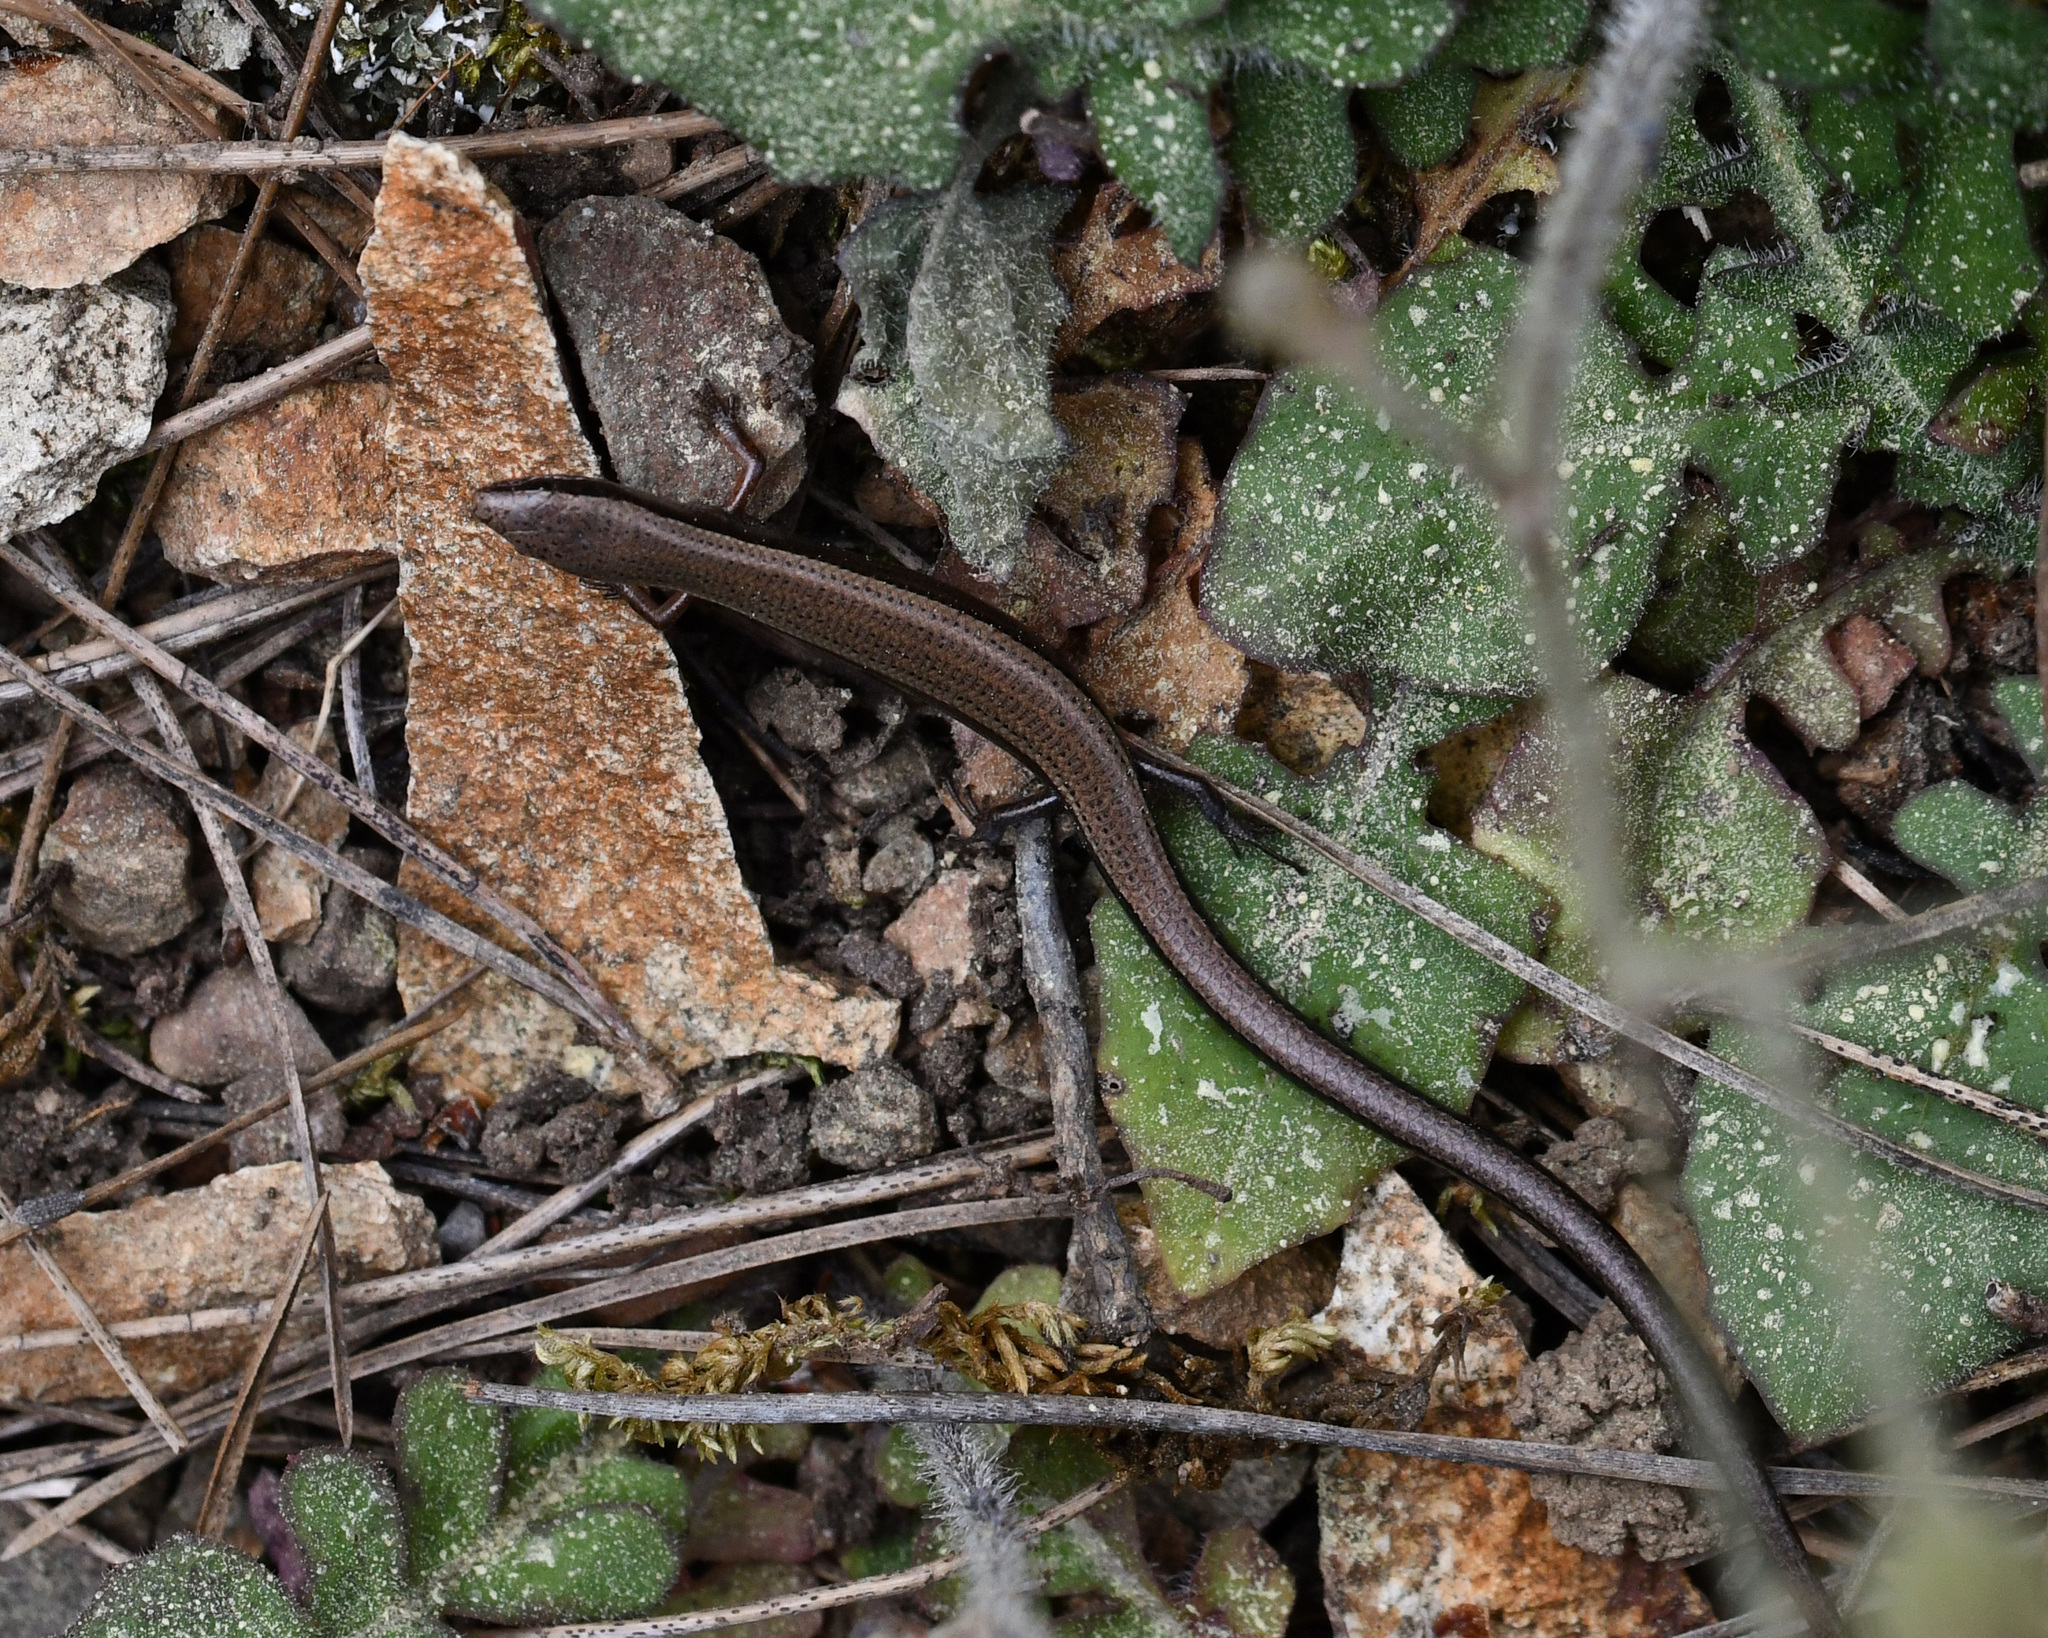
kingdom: Animalia
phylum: Chordata
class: Squamata
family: Scincidae
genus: Ablepharus
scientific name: Ablepharus budaki
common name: Budak’s snake-eyed skink
